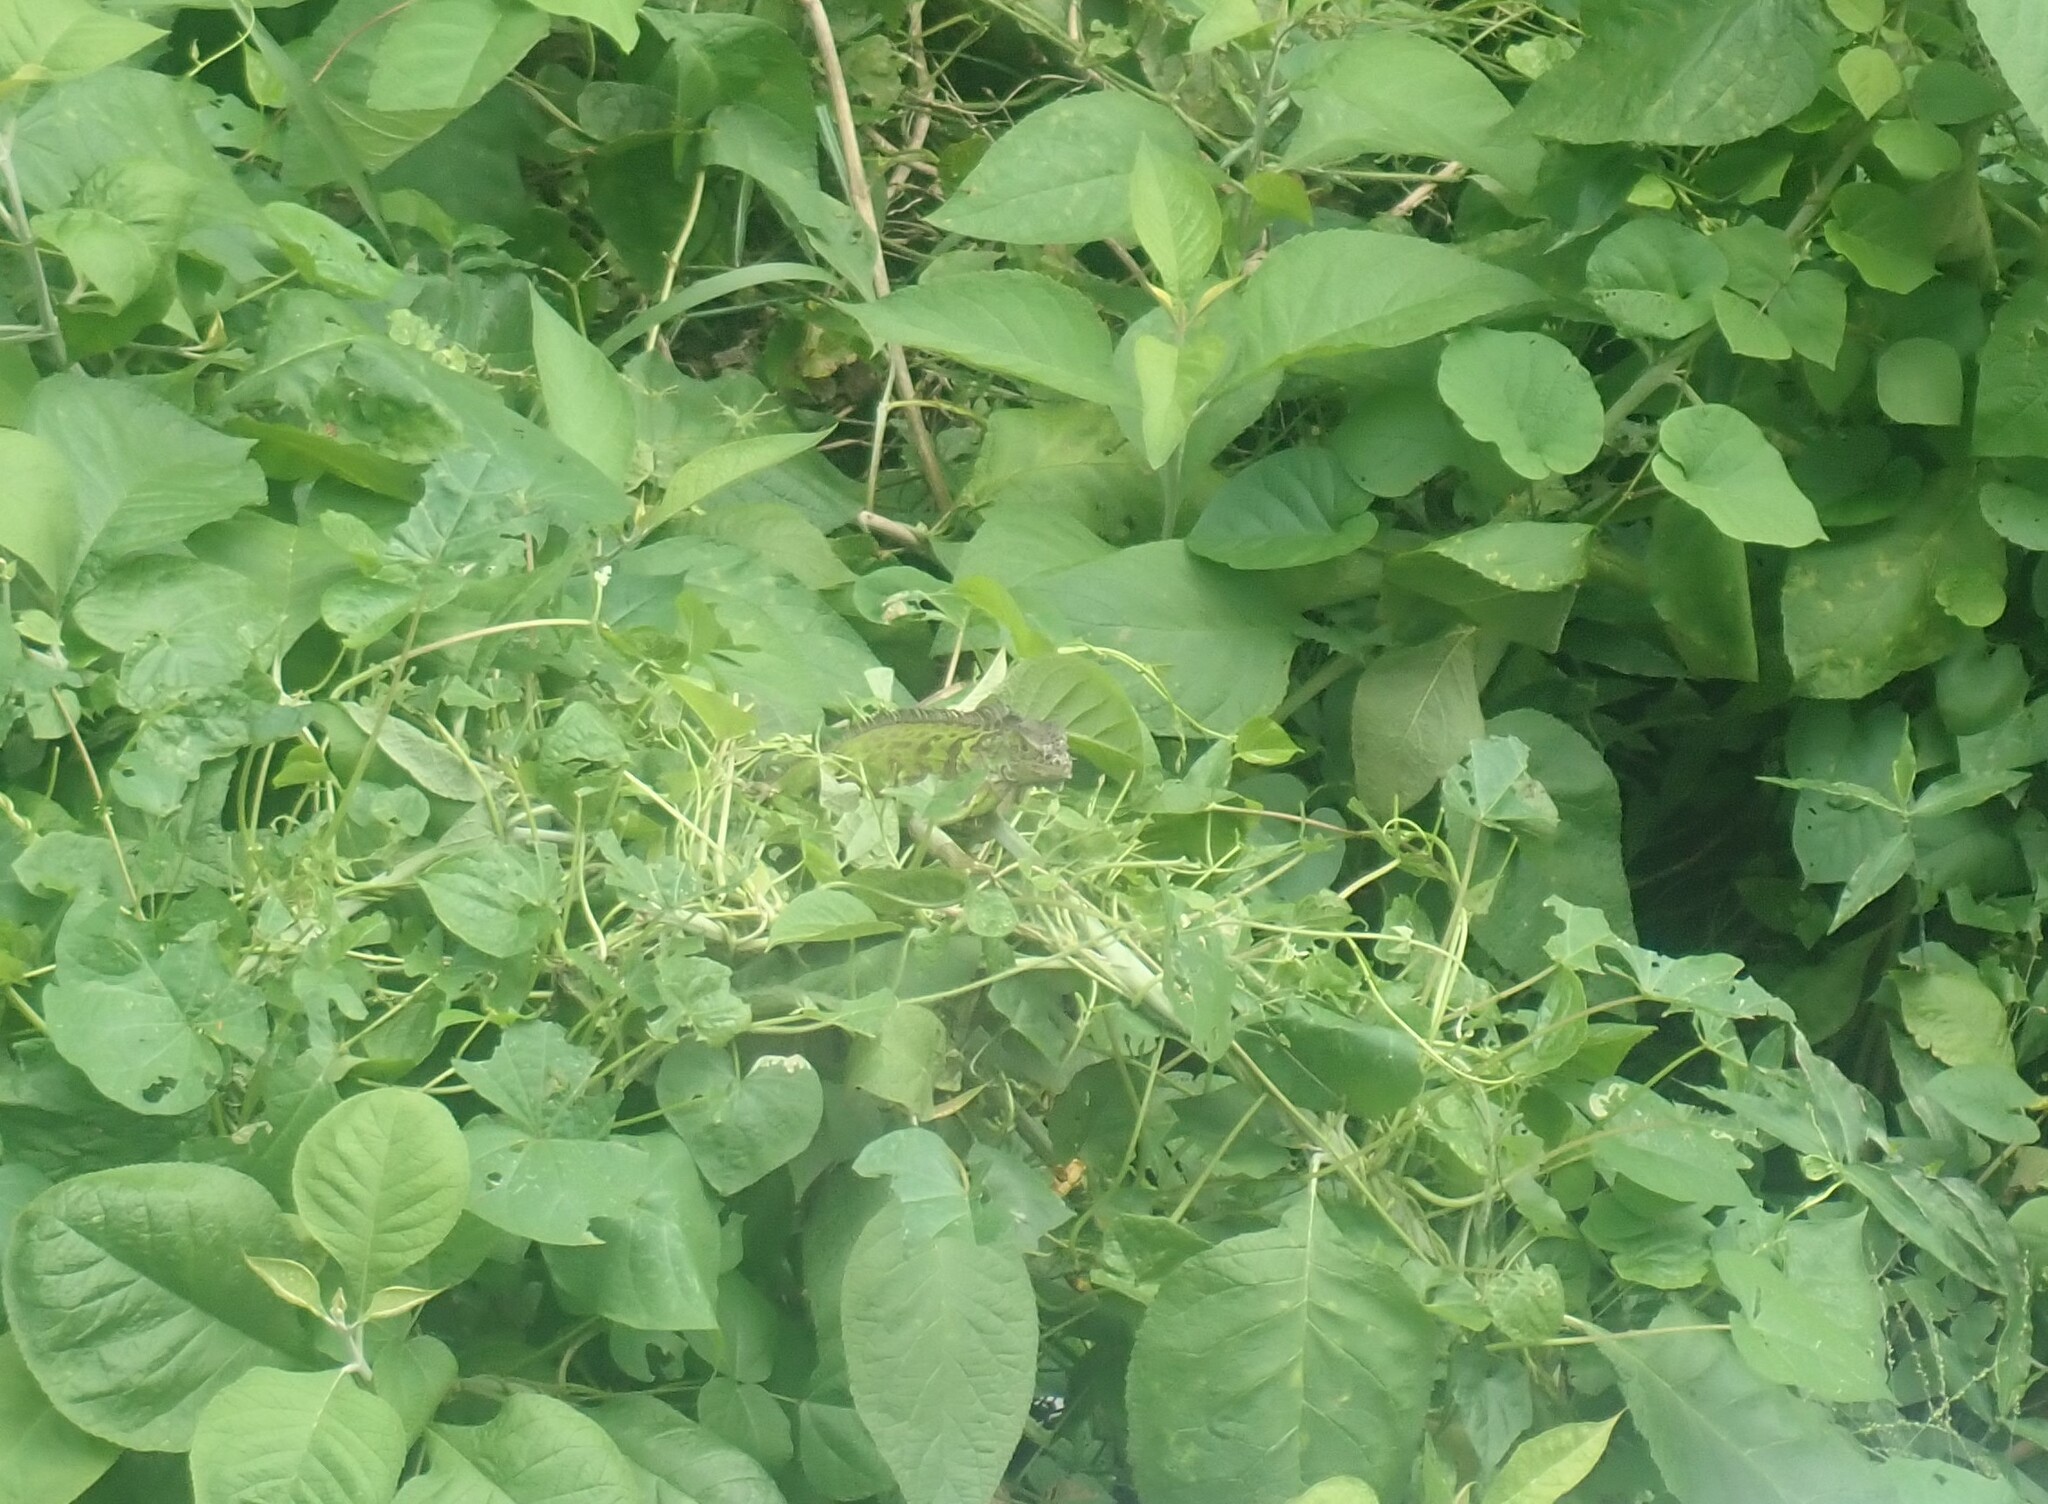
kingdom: Animalia
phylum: Chordata
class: Squamata
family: Iguanidae
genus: Iguana
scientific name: Iguana iguana
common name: Green iguana
